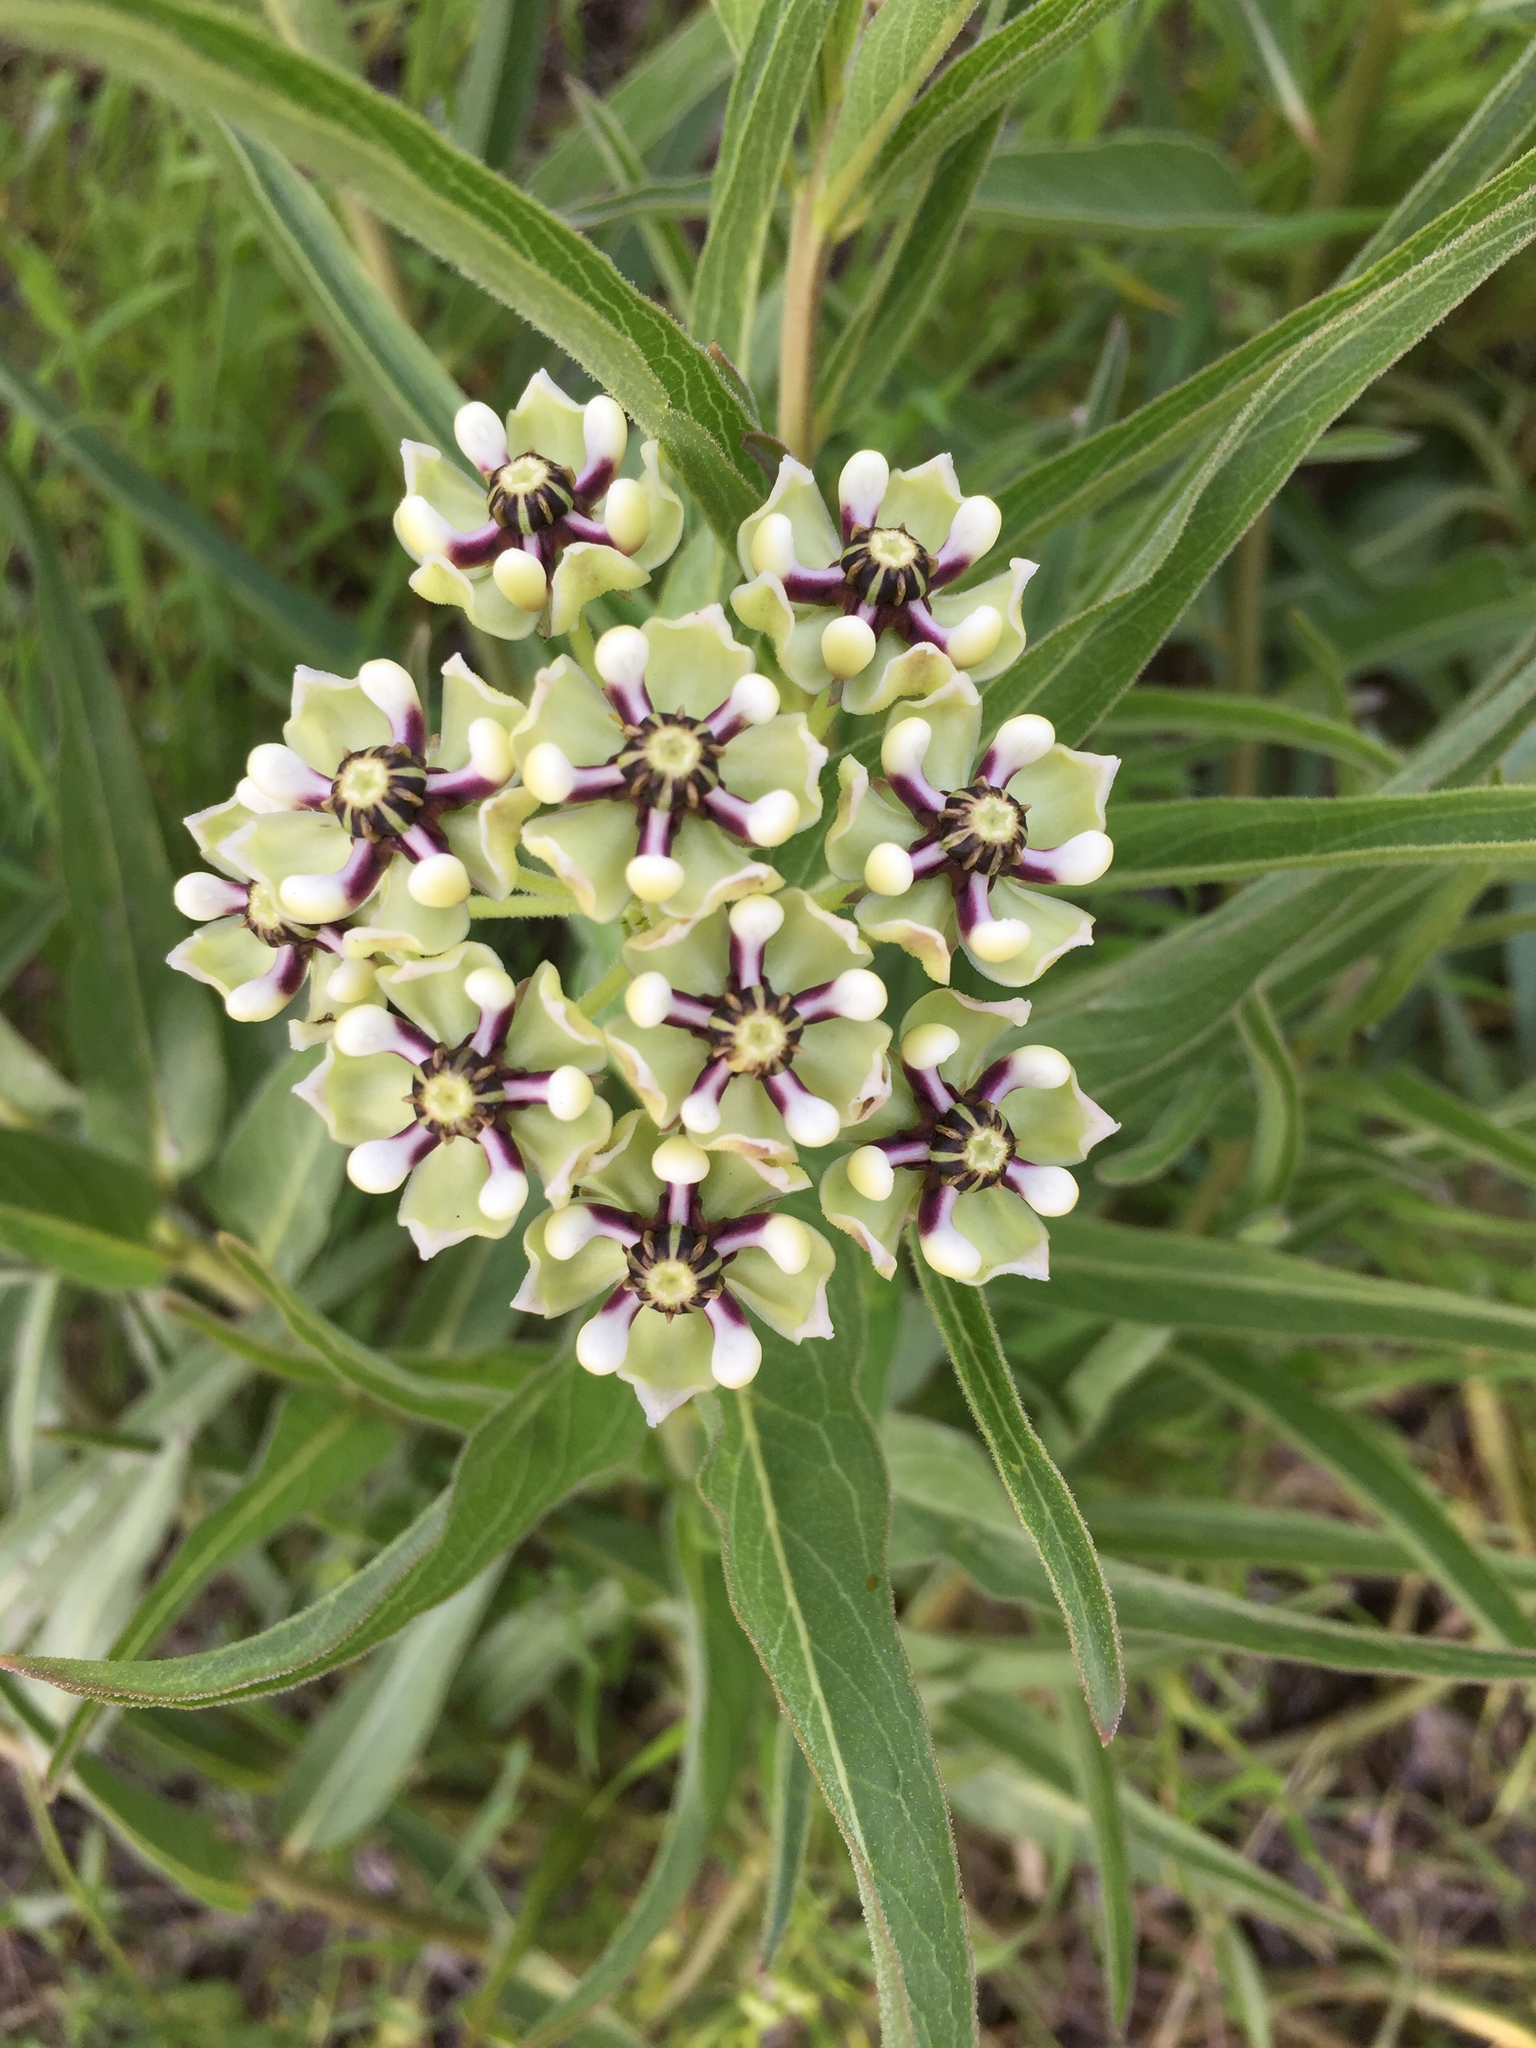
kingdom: Plantae
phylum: Tracheophyta
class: Magnoliopsida
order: Gentianales
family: Apocynaceae
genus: Asclepias
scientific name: Asclepias asperula
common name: Antelope horns
